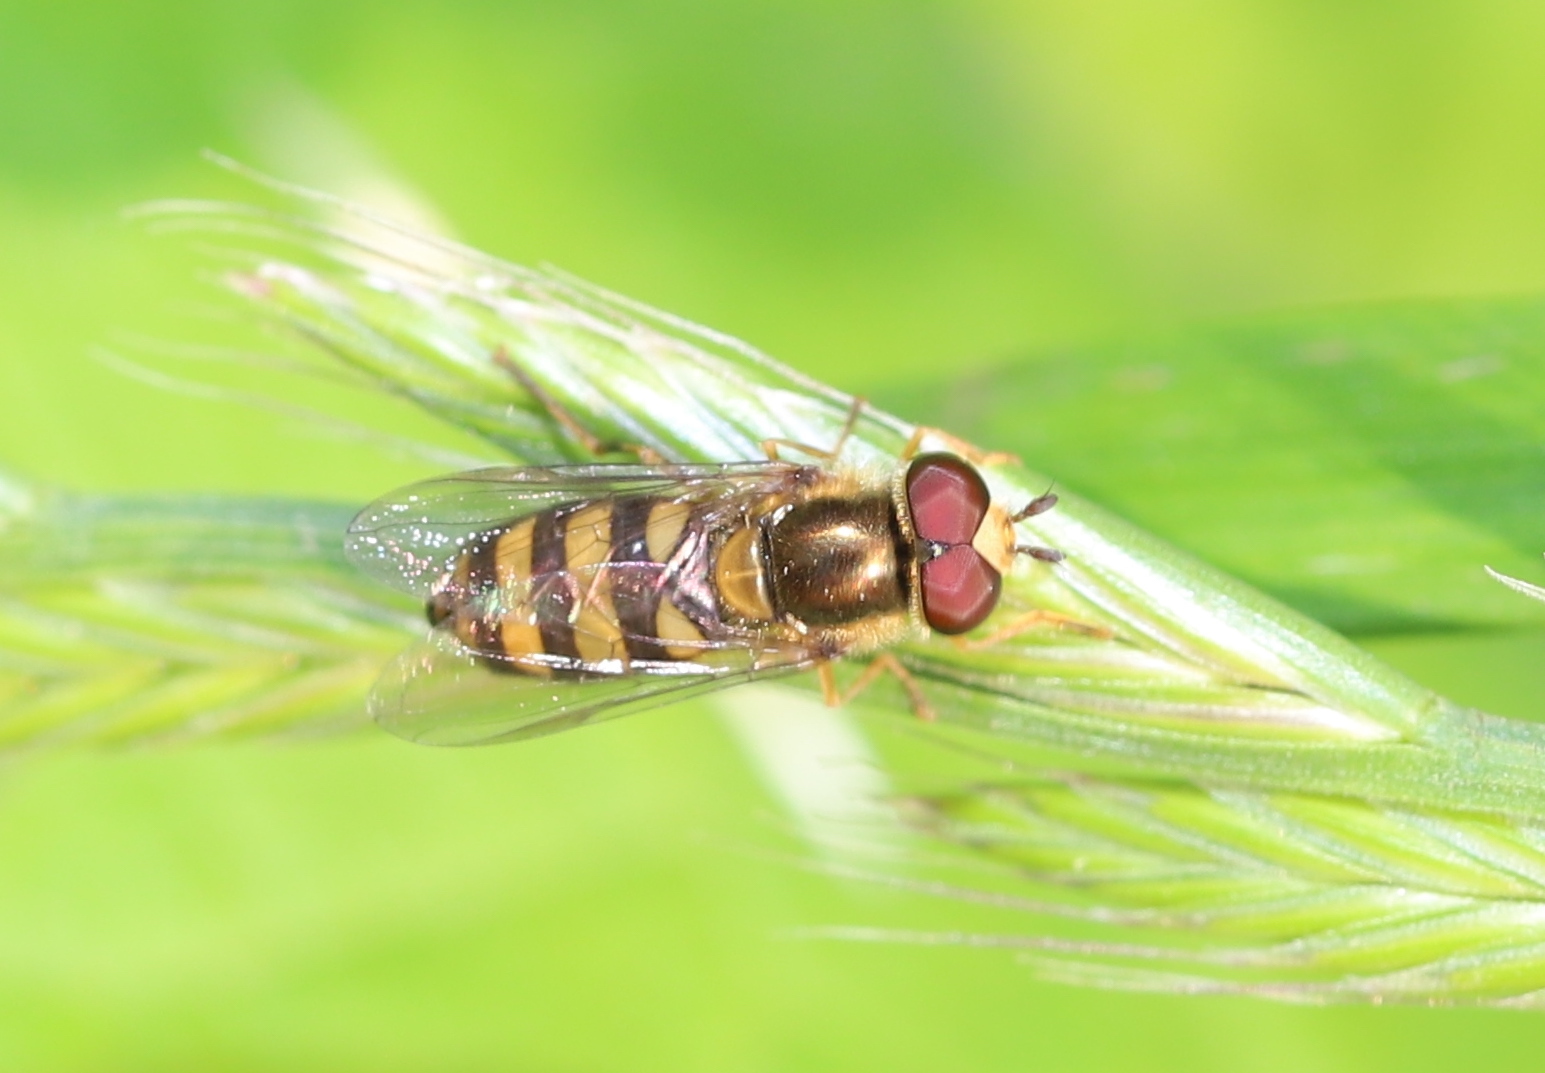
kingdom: Animalia
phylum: Arthropoda
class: Insecta
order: Diptera
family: Syrphidae
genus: Eupeodes
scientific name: Eupeodes
